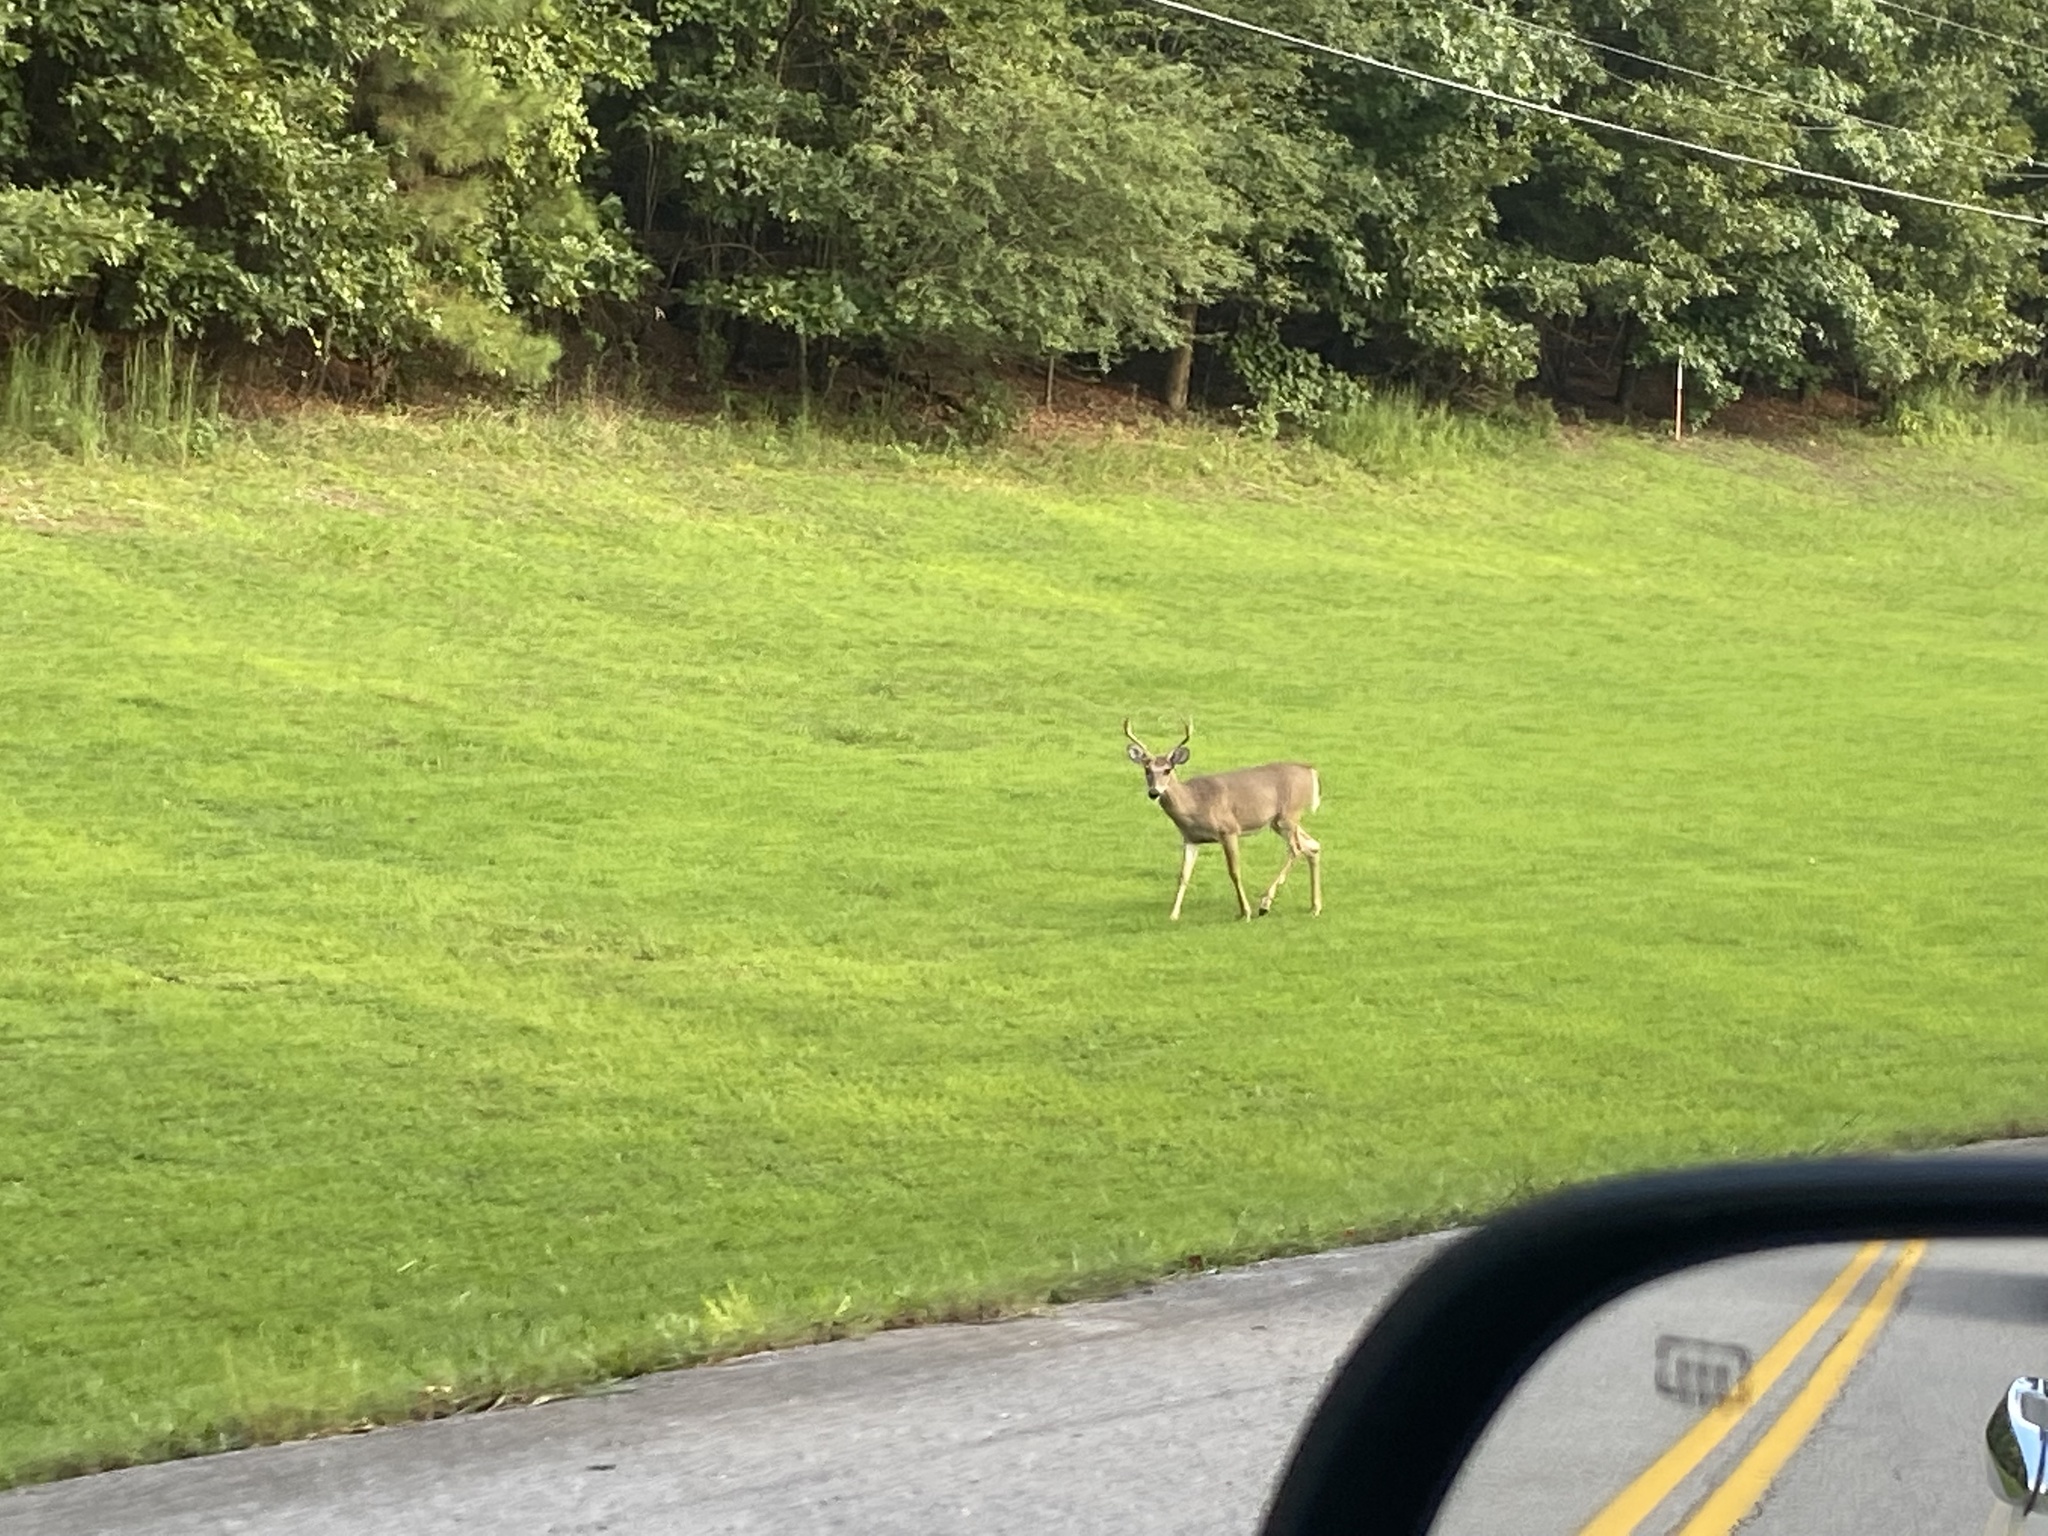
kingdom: Animalia
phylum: Chordata
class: Mammalia
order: Artiodactyla
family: Cervidae
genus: Odocoileus
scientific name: Odocoileus virginianus
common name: White-tailed deer
